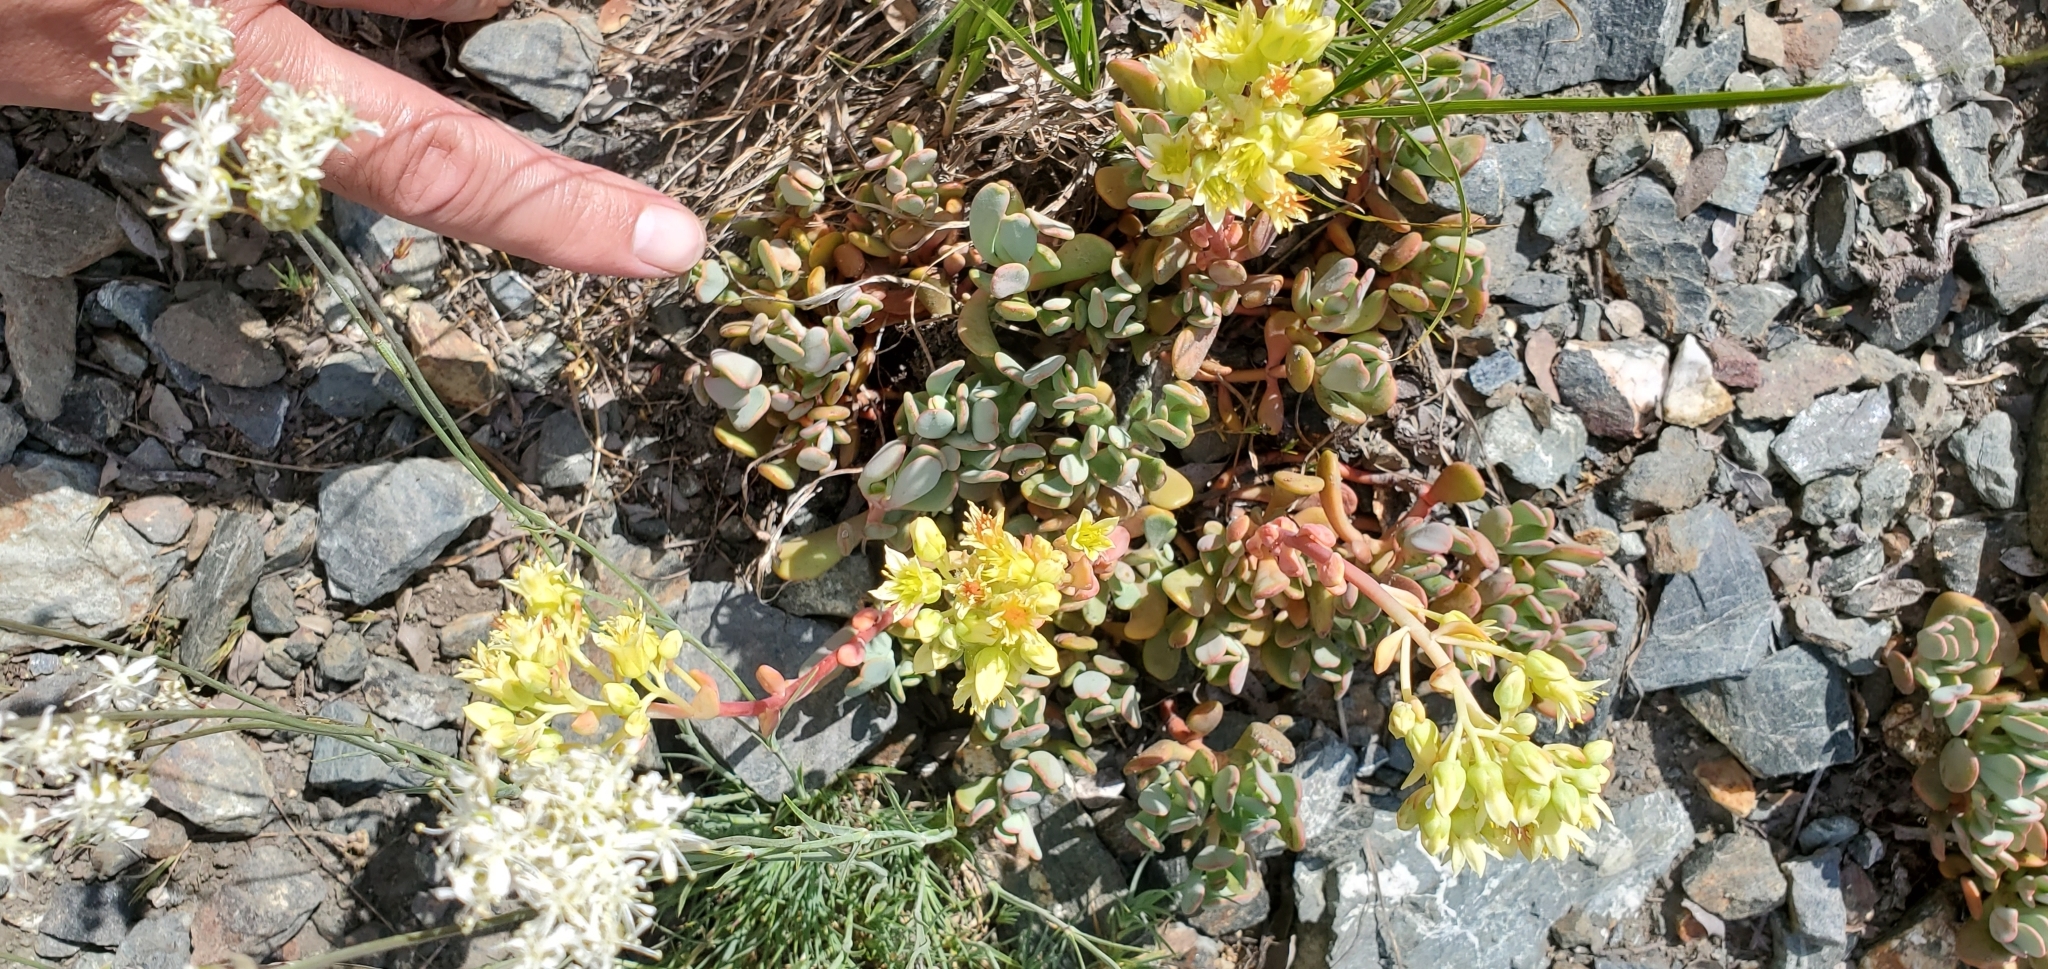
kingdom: Plantae
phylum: Tracheophyta
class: Magnoliopsida
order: Saxifragales
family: Crassulaceae
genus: Sedum
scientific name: Sedum
